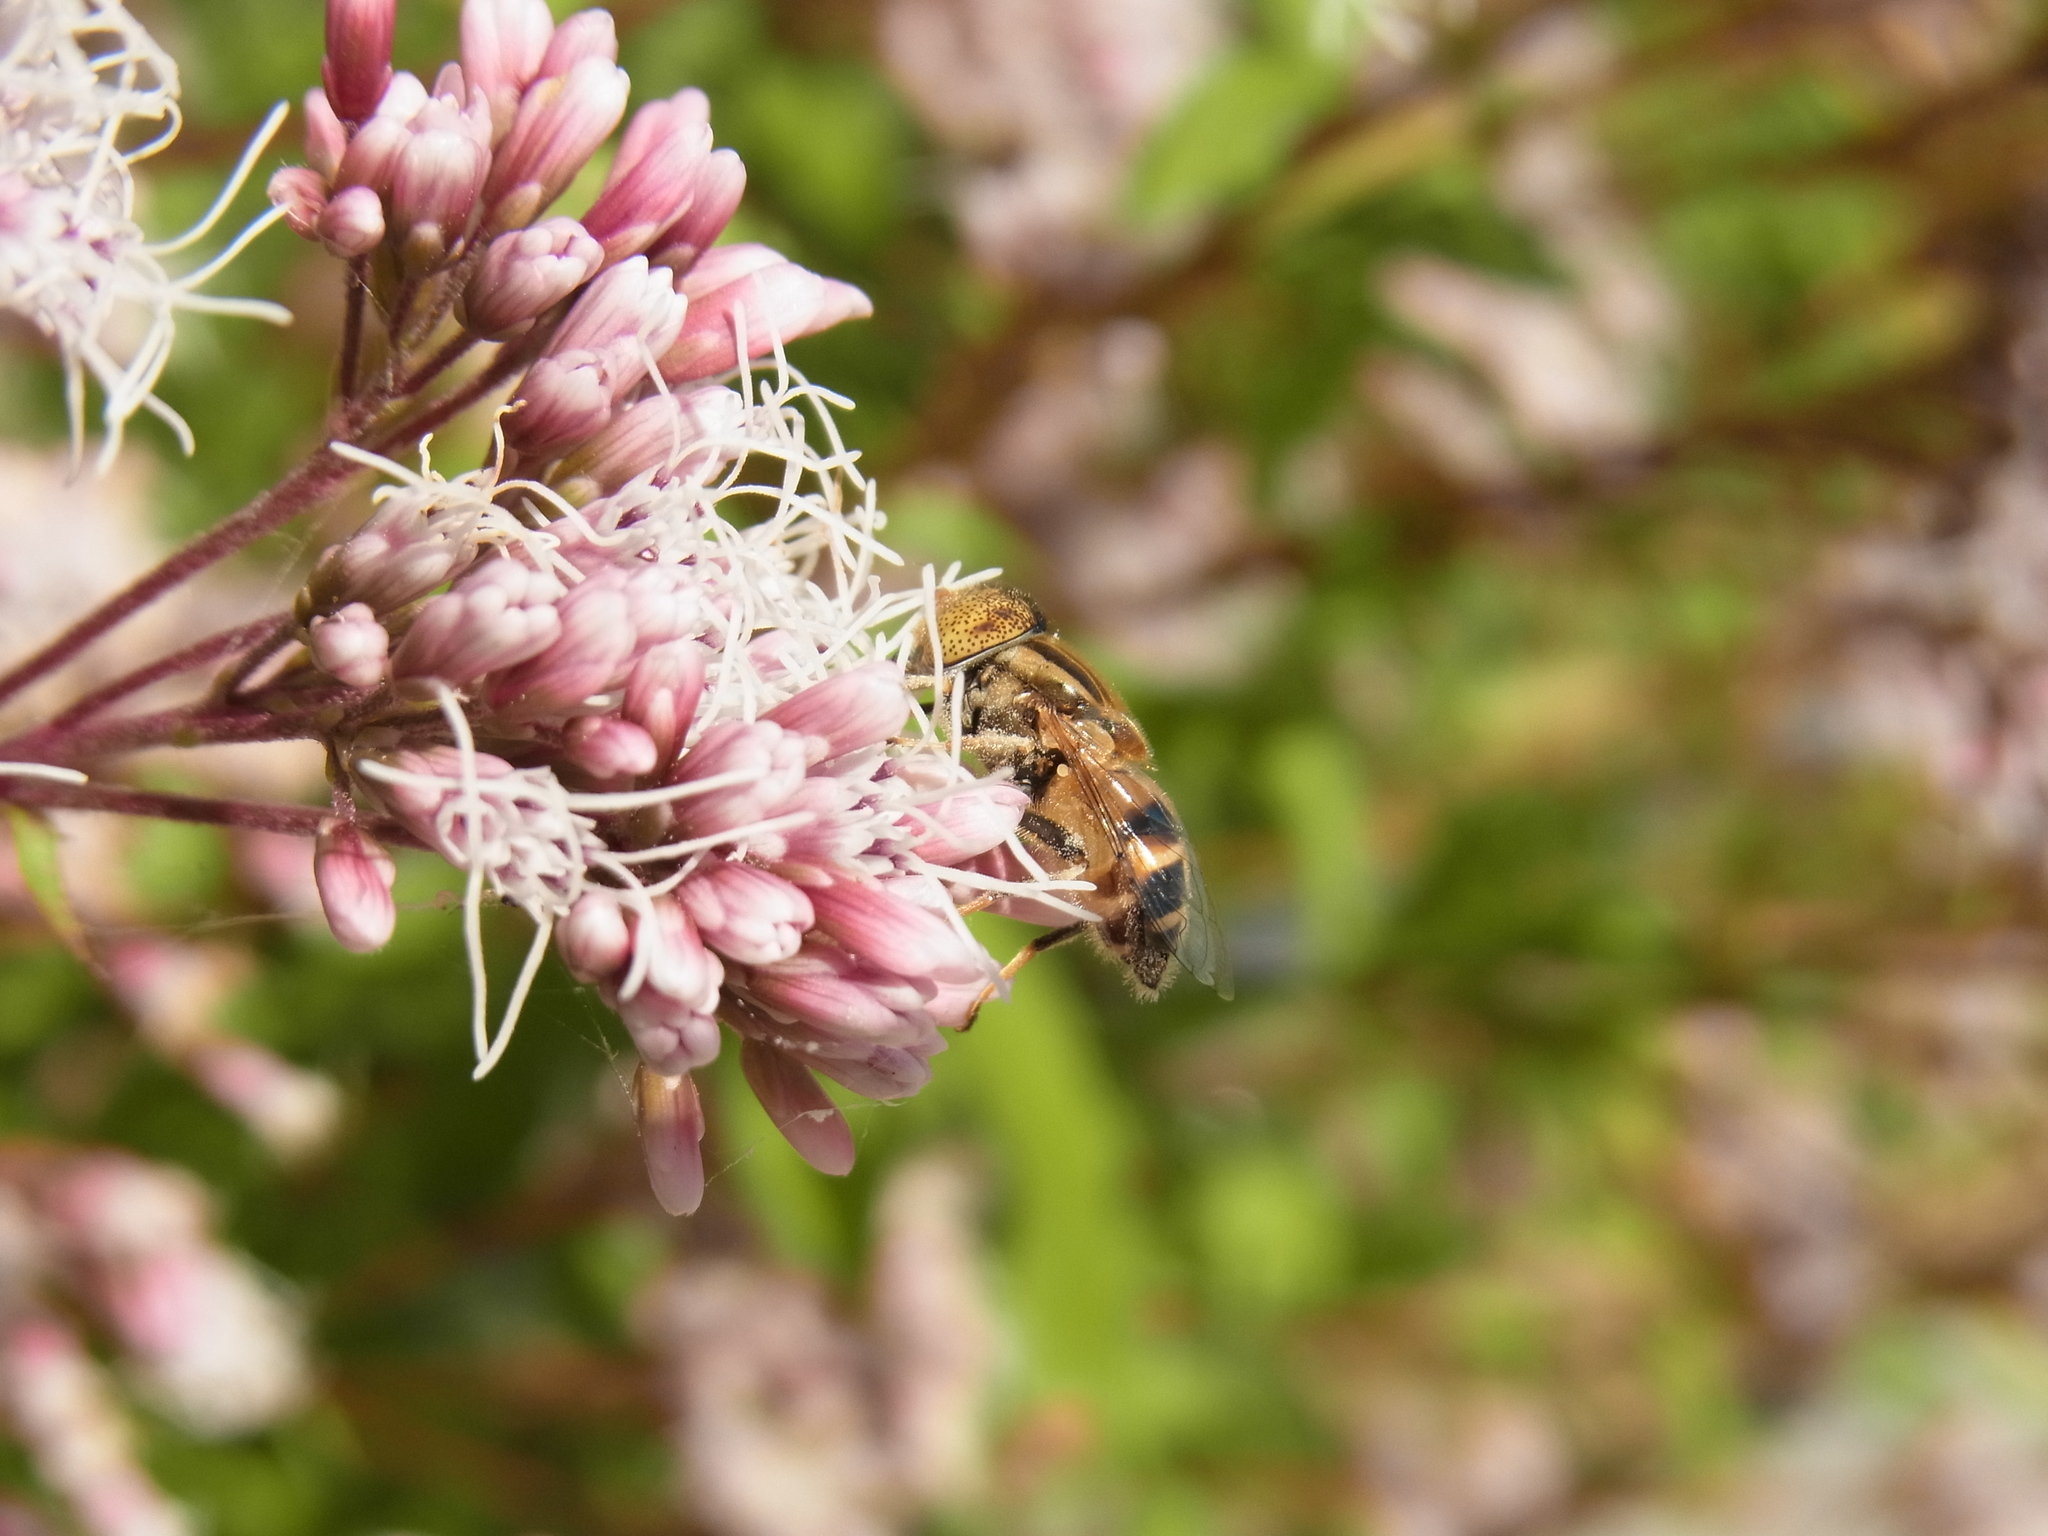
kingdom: Animalia
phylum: Arthropoda
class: Insecta
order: Diptera
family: Syrphidae
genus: Eristalinus
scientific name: Eristalinus quinquestriatus
